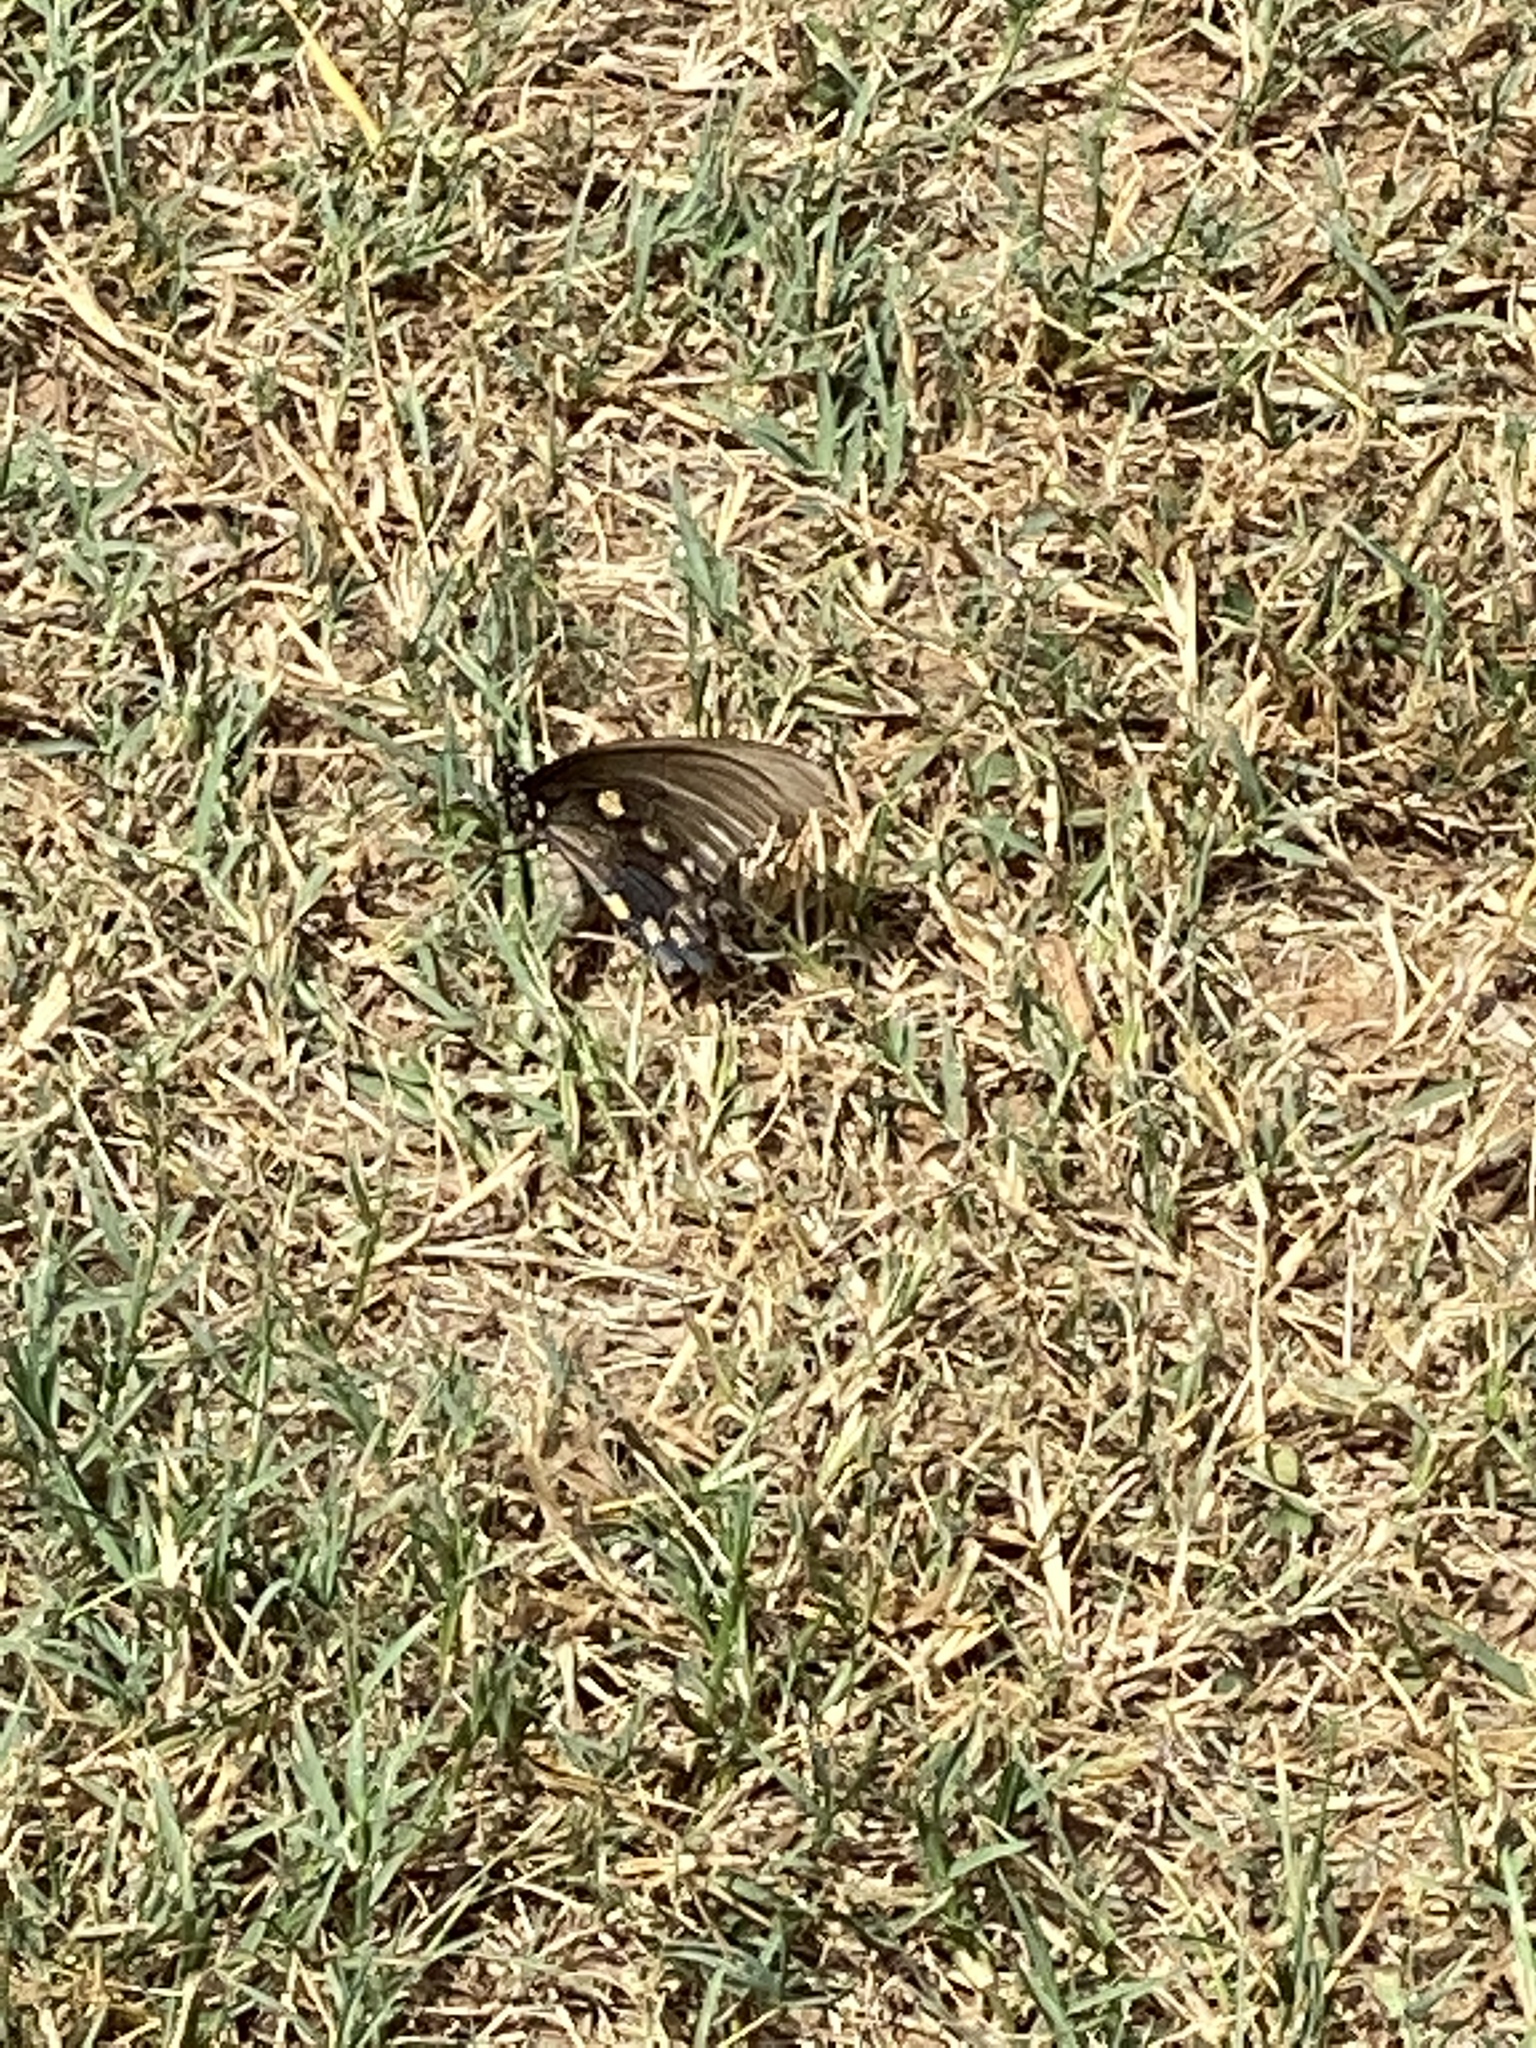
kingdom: Animalia
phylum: Arthropoda
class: Insecta
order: Lepidoptera
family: Papilionidae
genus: Battus
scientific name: Battus philenor
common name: Pipevine swallowtail
